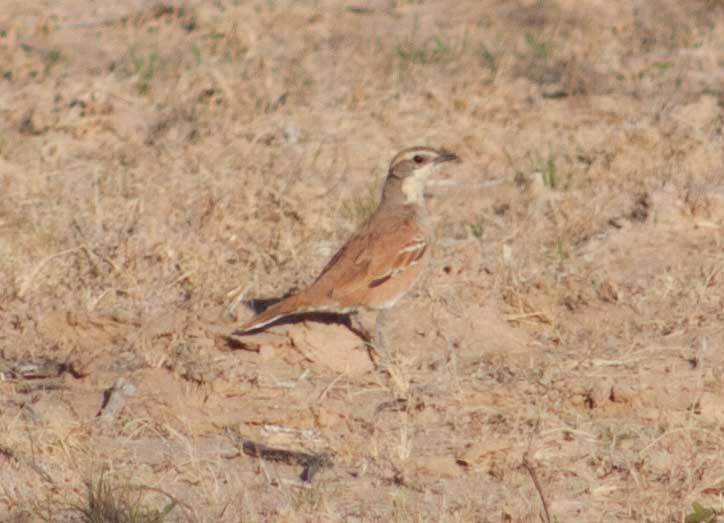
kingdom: Animalia
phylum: Chordata
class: Aves
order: Passeriformes
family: Psophodidae
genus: Cinclosoma
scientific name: Cinclosoma cinnamomeum
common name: Cinnamon quail-thrush
